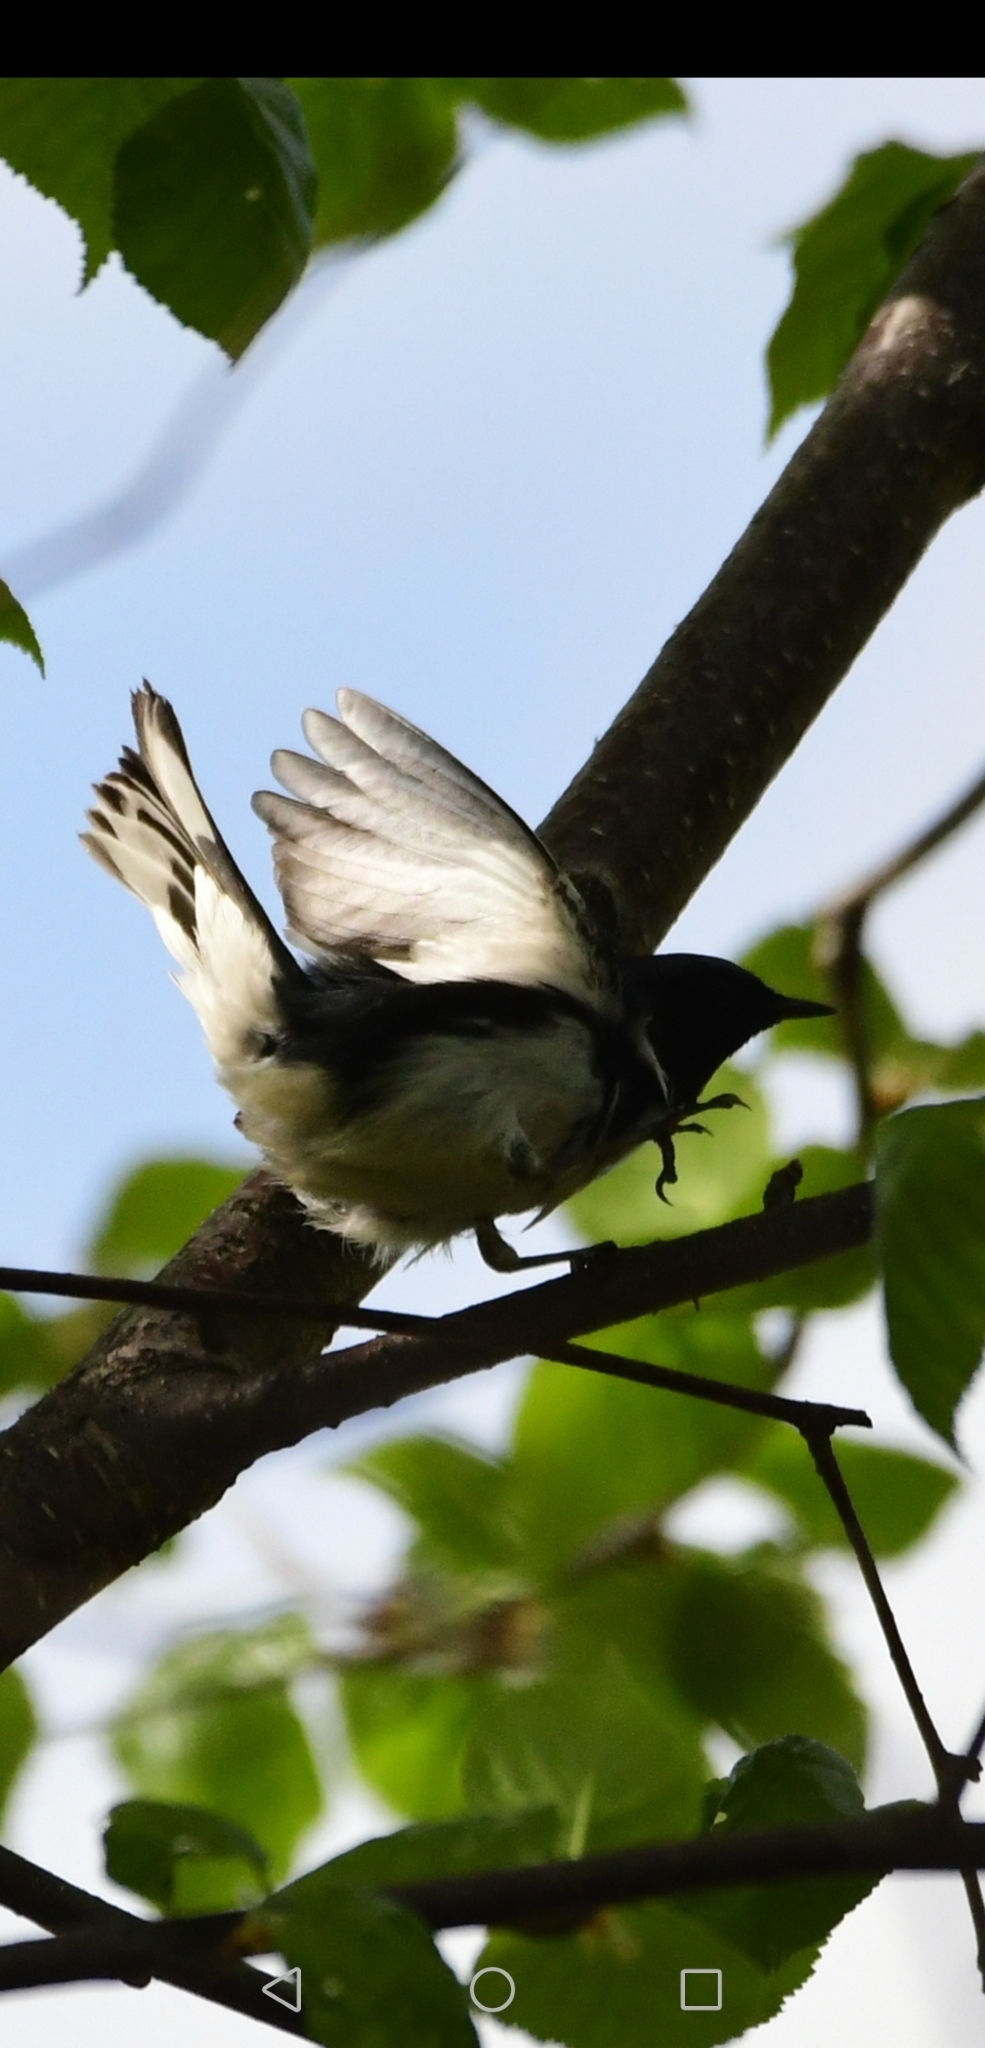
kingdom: Animalia
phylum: Chordata
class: Aves
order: Passeriformes
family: Parulidae
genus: Setophaga
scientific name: Setophaga caerulescens
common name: Black-throated blue warbler
